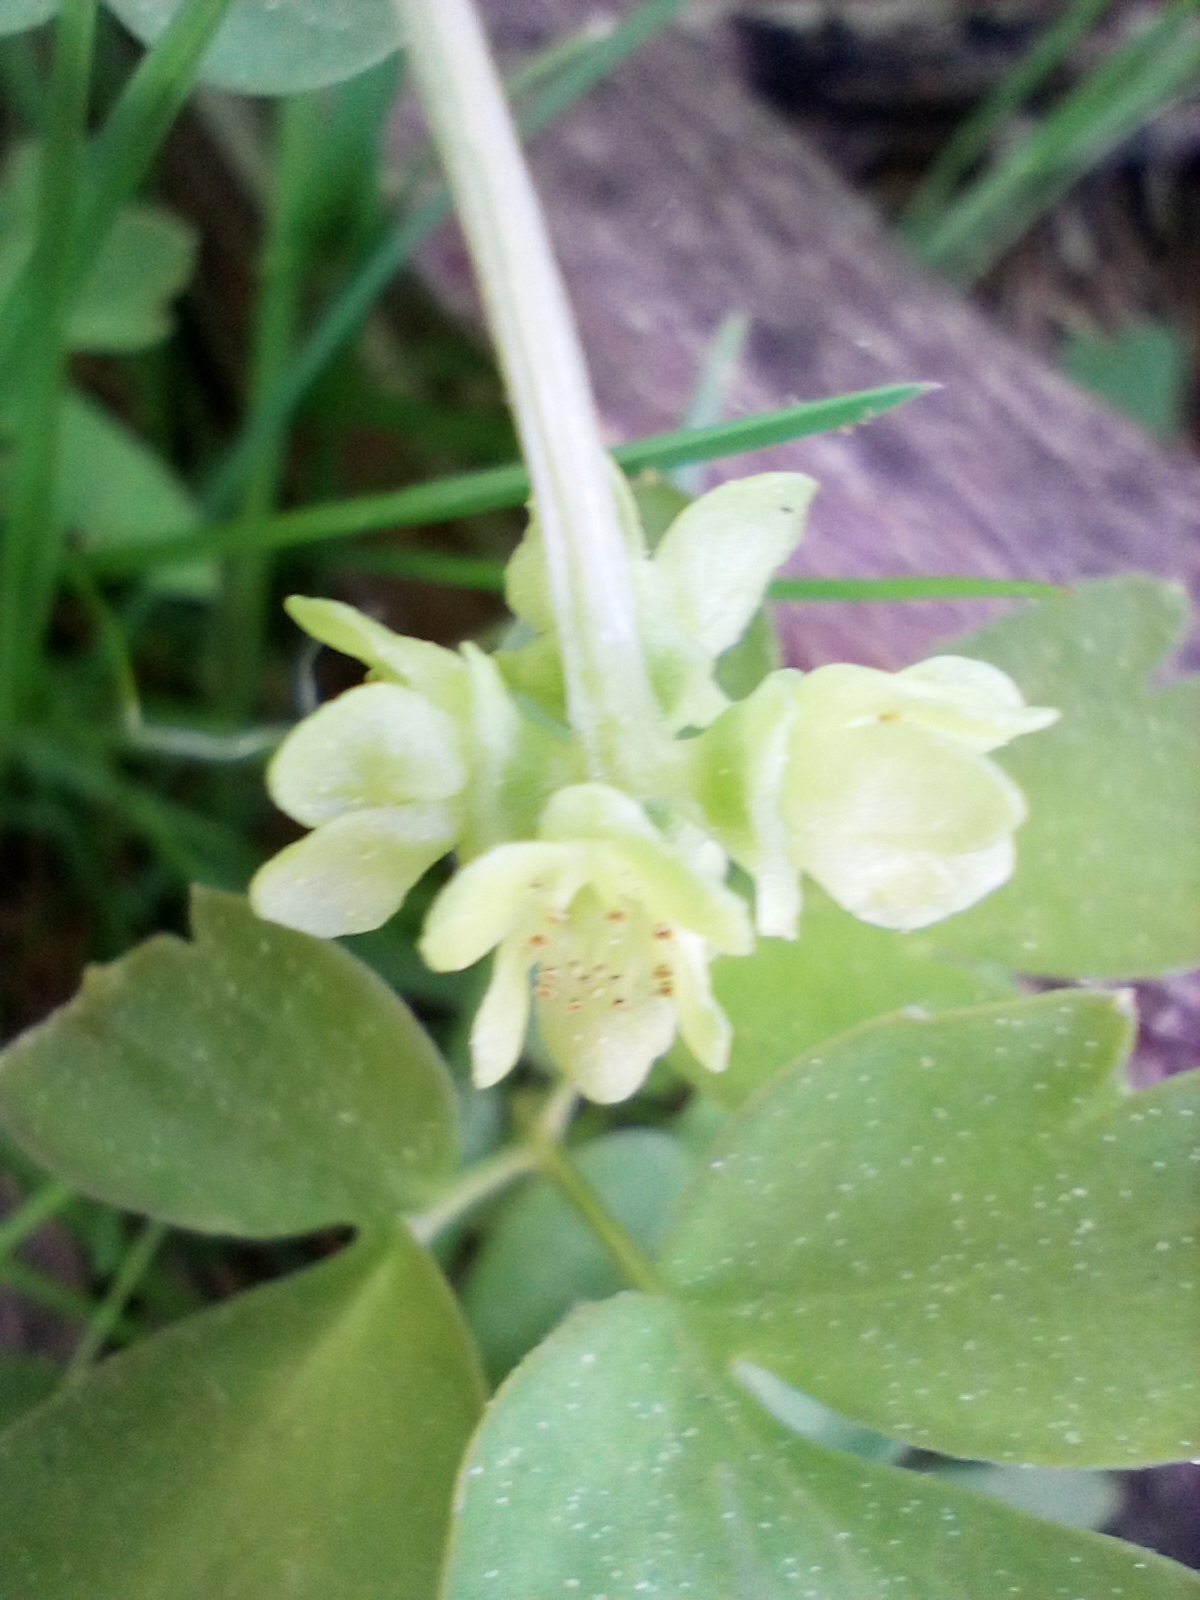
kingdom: Plantae
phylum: Tracheophyta
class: Magnoliopsida
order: Dipsacales
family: Viburnaceae
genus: Adoxa
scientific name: Adoxa moschatellina
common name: Moschatel
